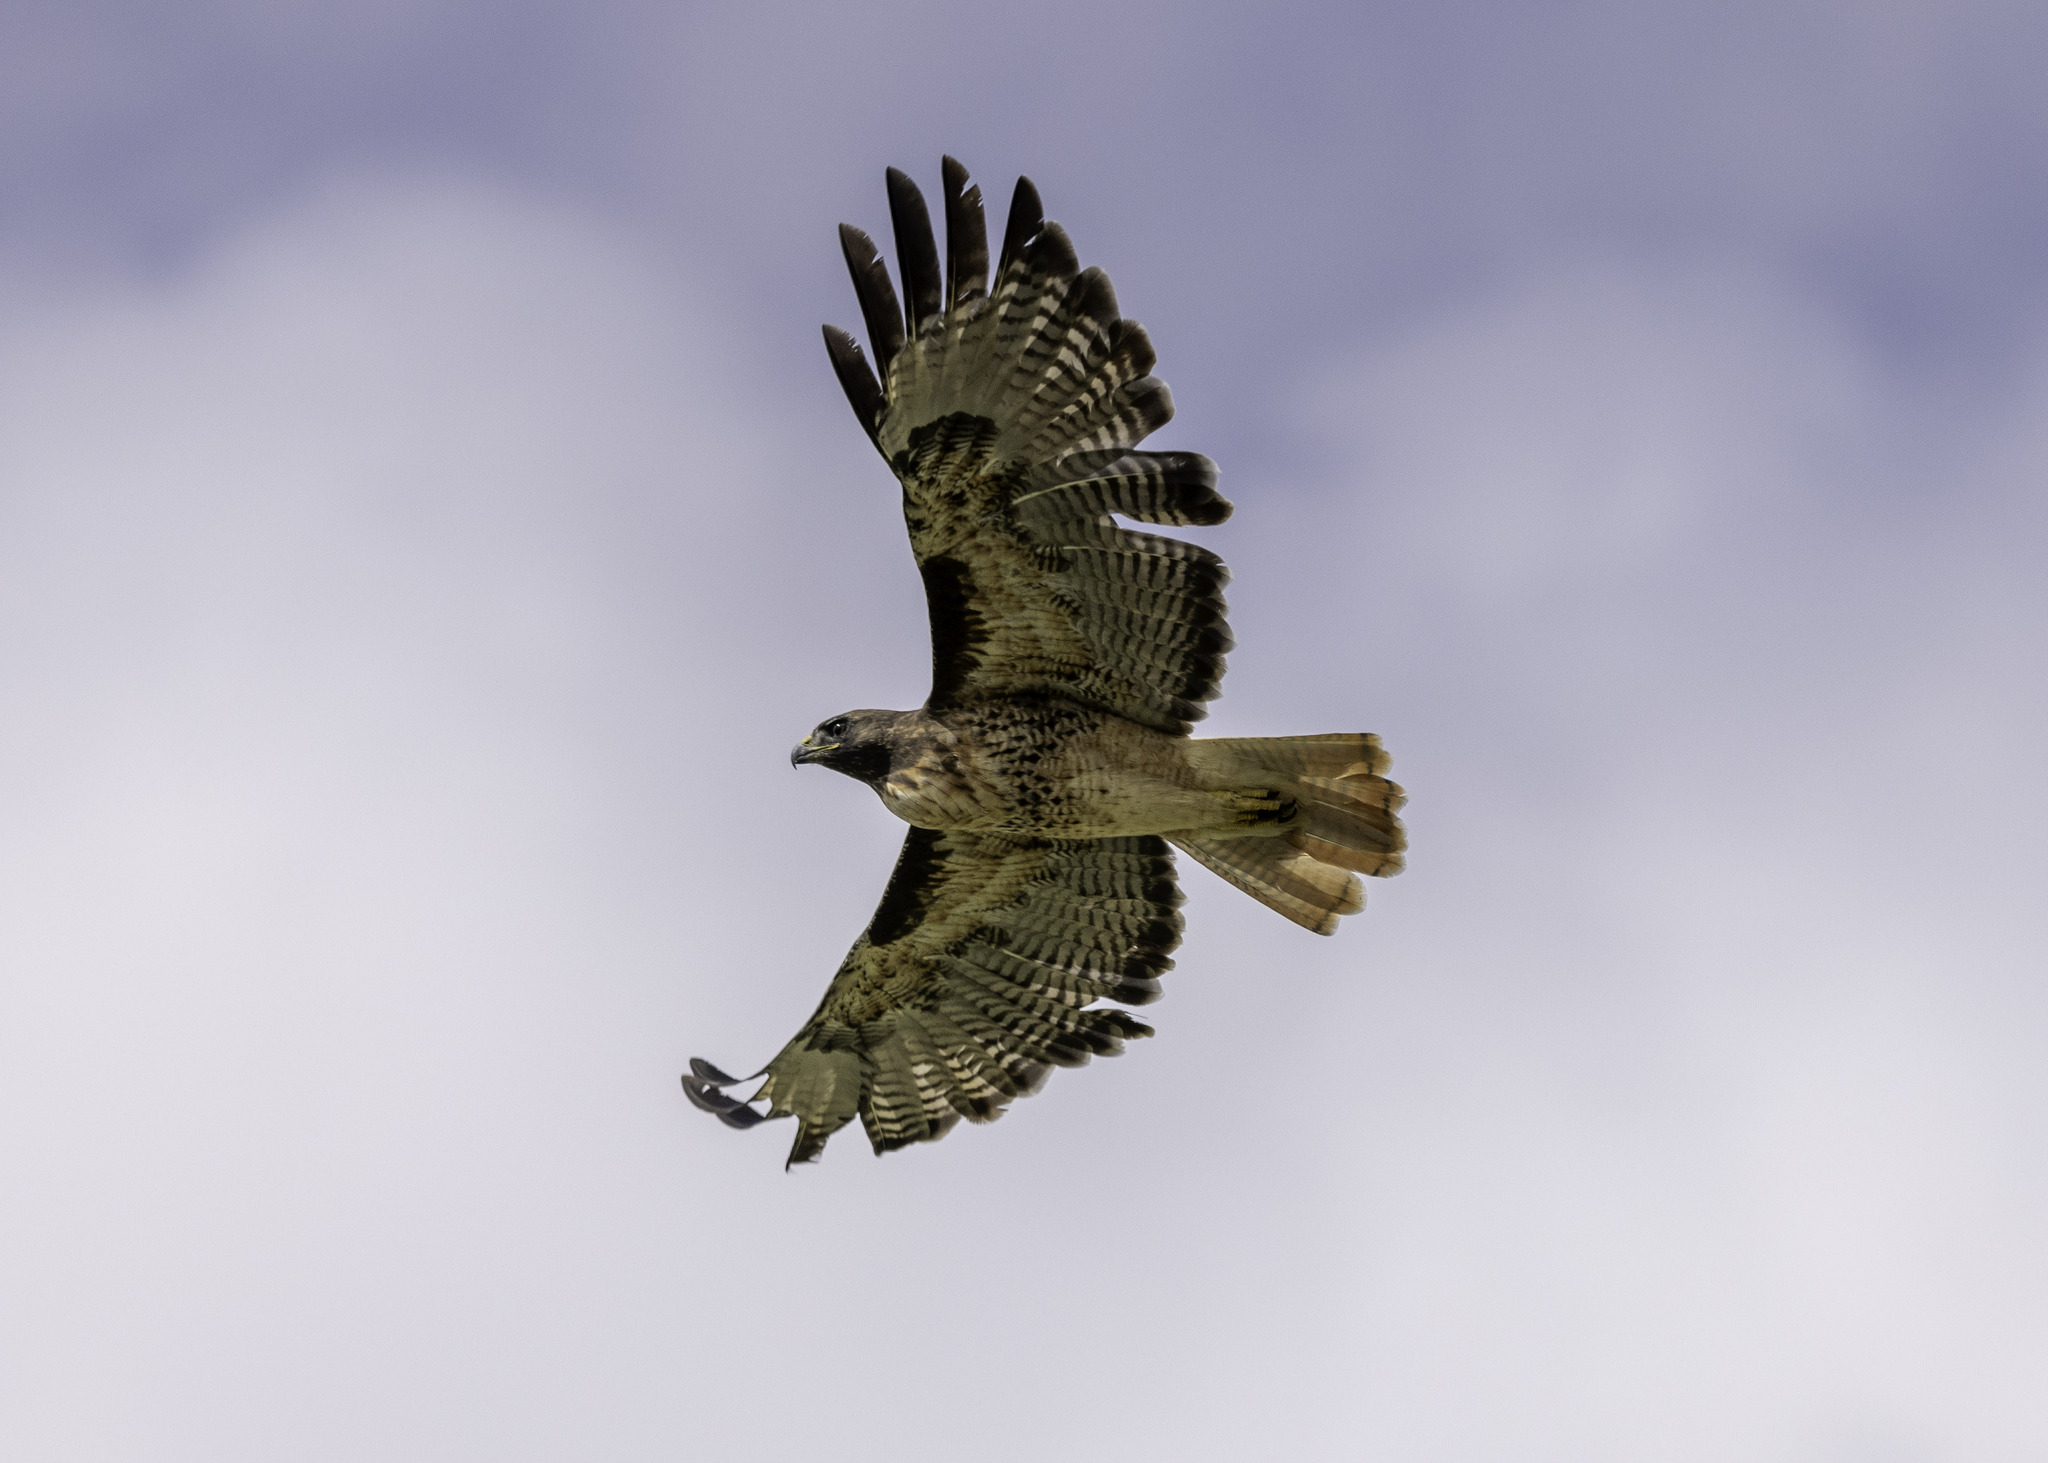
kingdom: Animalia
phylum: Chordata
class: Aves
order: Accipitriformes
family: Accipitridae
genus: Buteo
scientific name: Buteo jamaicensis
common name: Red-tailed hawk
